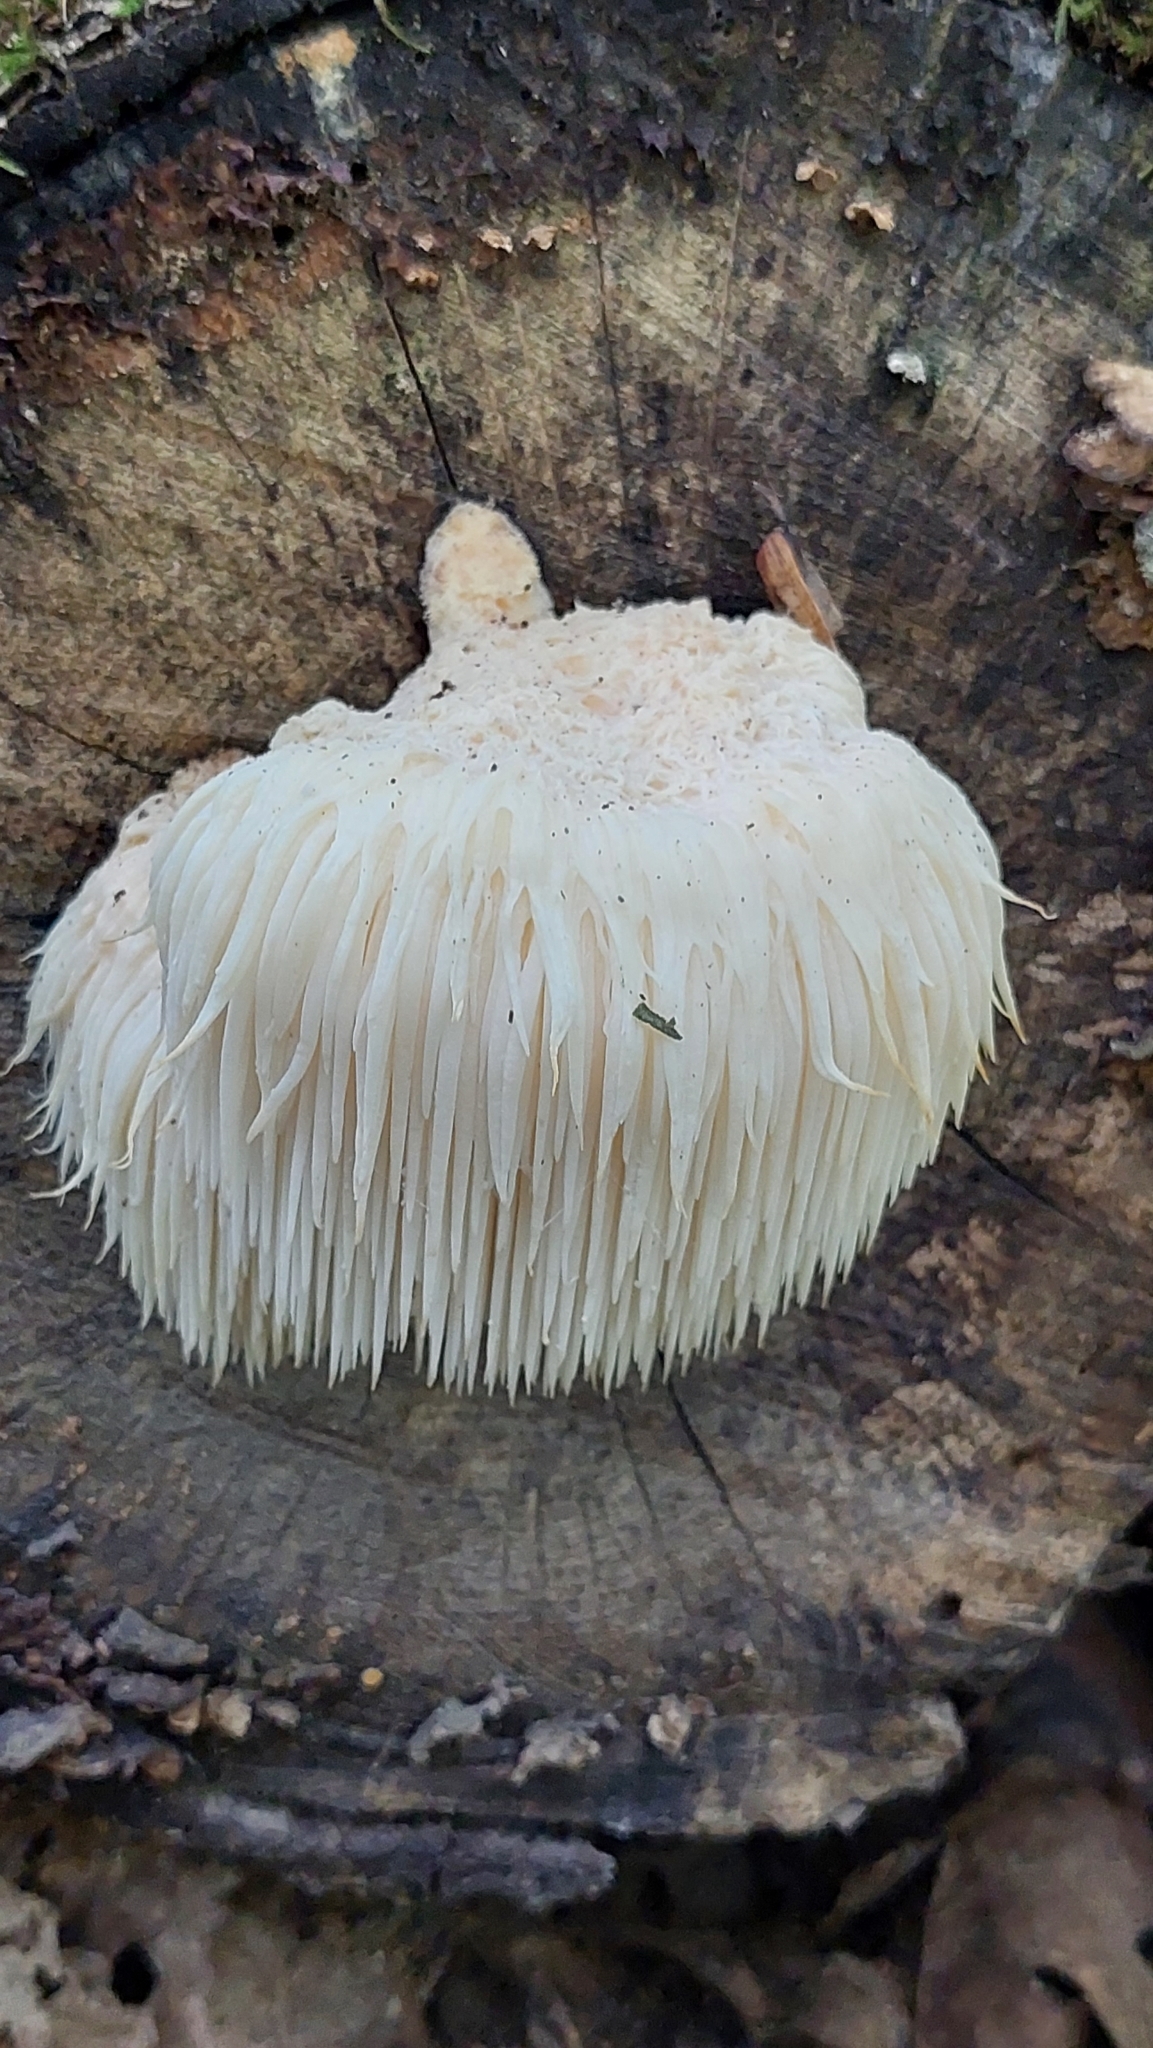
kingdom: Fungi
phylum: Basidiomycota
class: Agaricomycetes
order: Russulales
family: Hericiaceae
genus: Hericium
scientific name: Hericium erinaceus
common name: Bearded tooth
